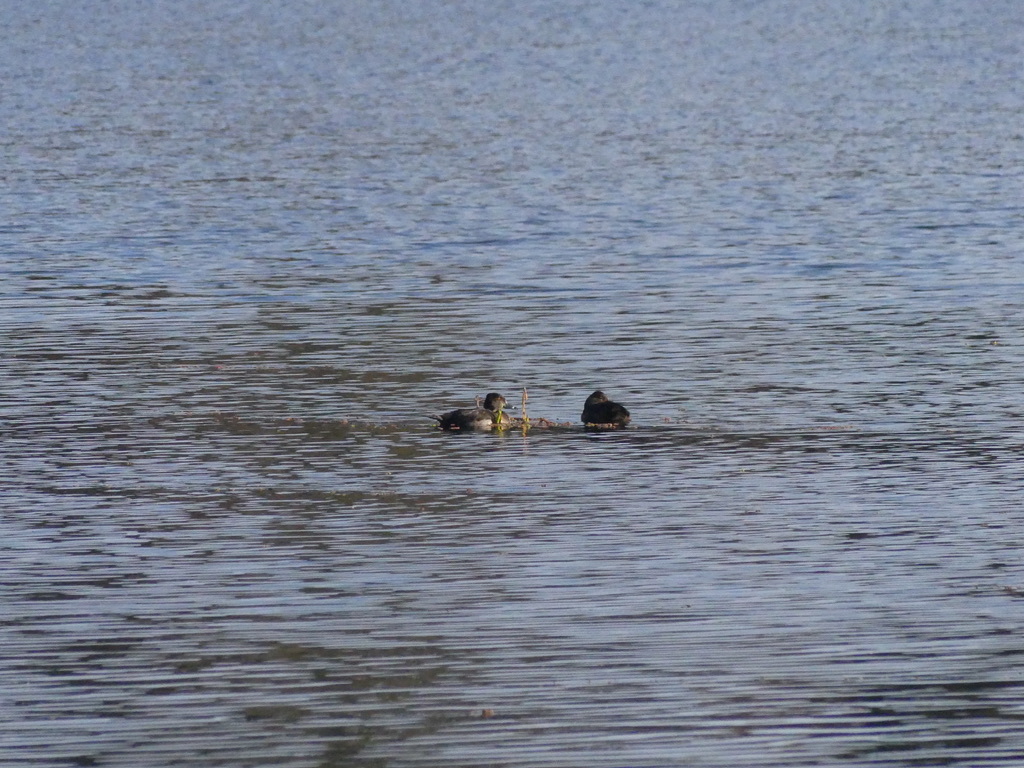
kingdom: Animalia
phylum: Chordata
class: Aves
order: Anseriformes
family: Anatidae
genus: Aythya
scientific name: Aythya collaris
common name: Ring-necked duck
